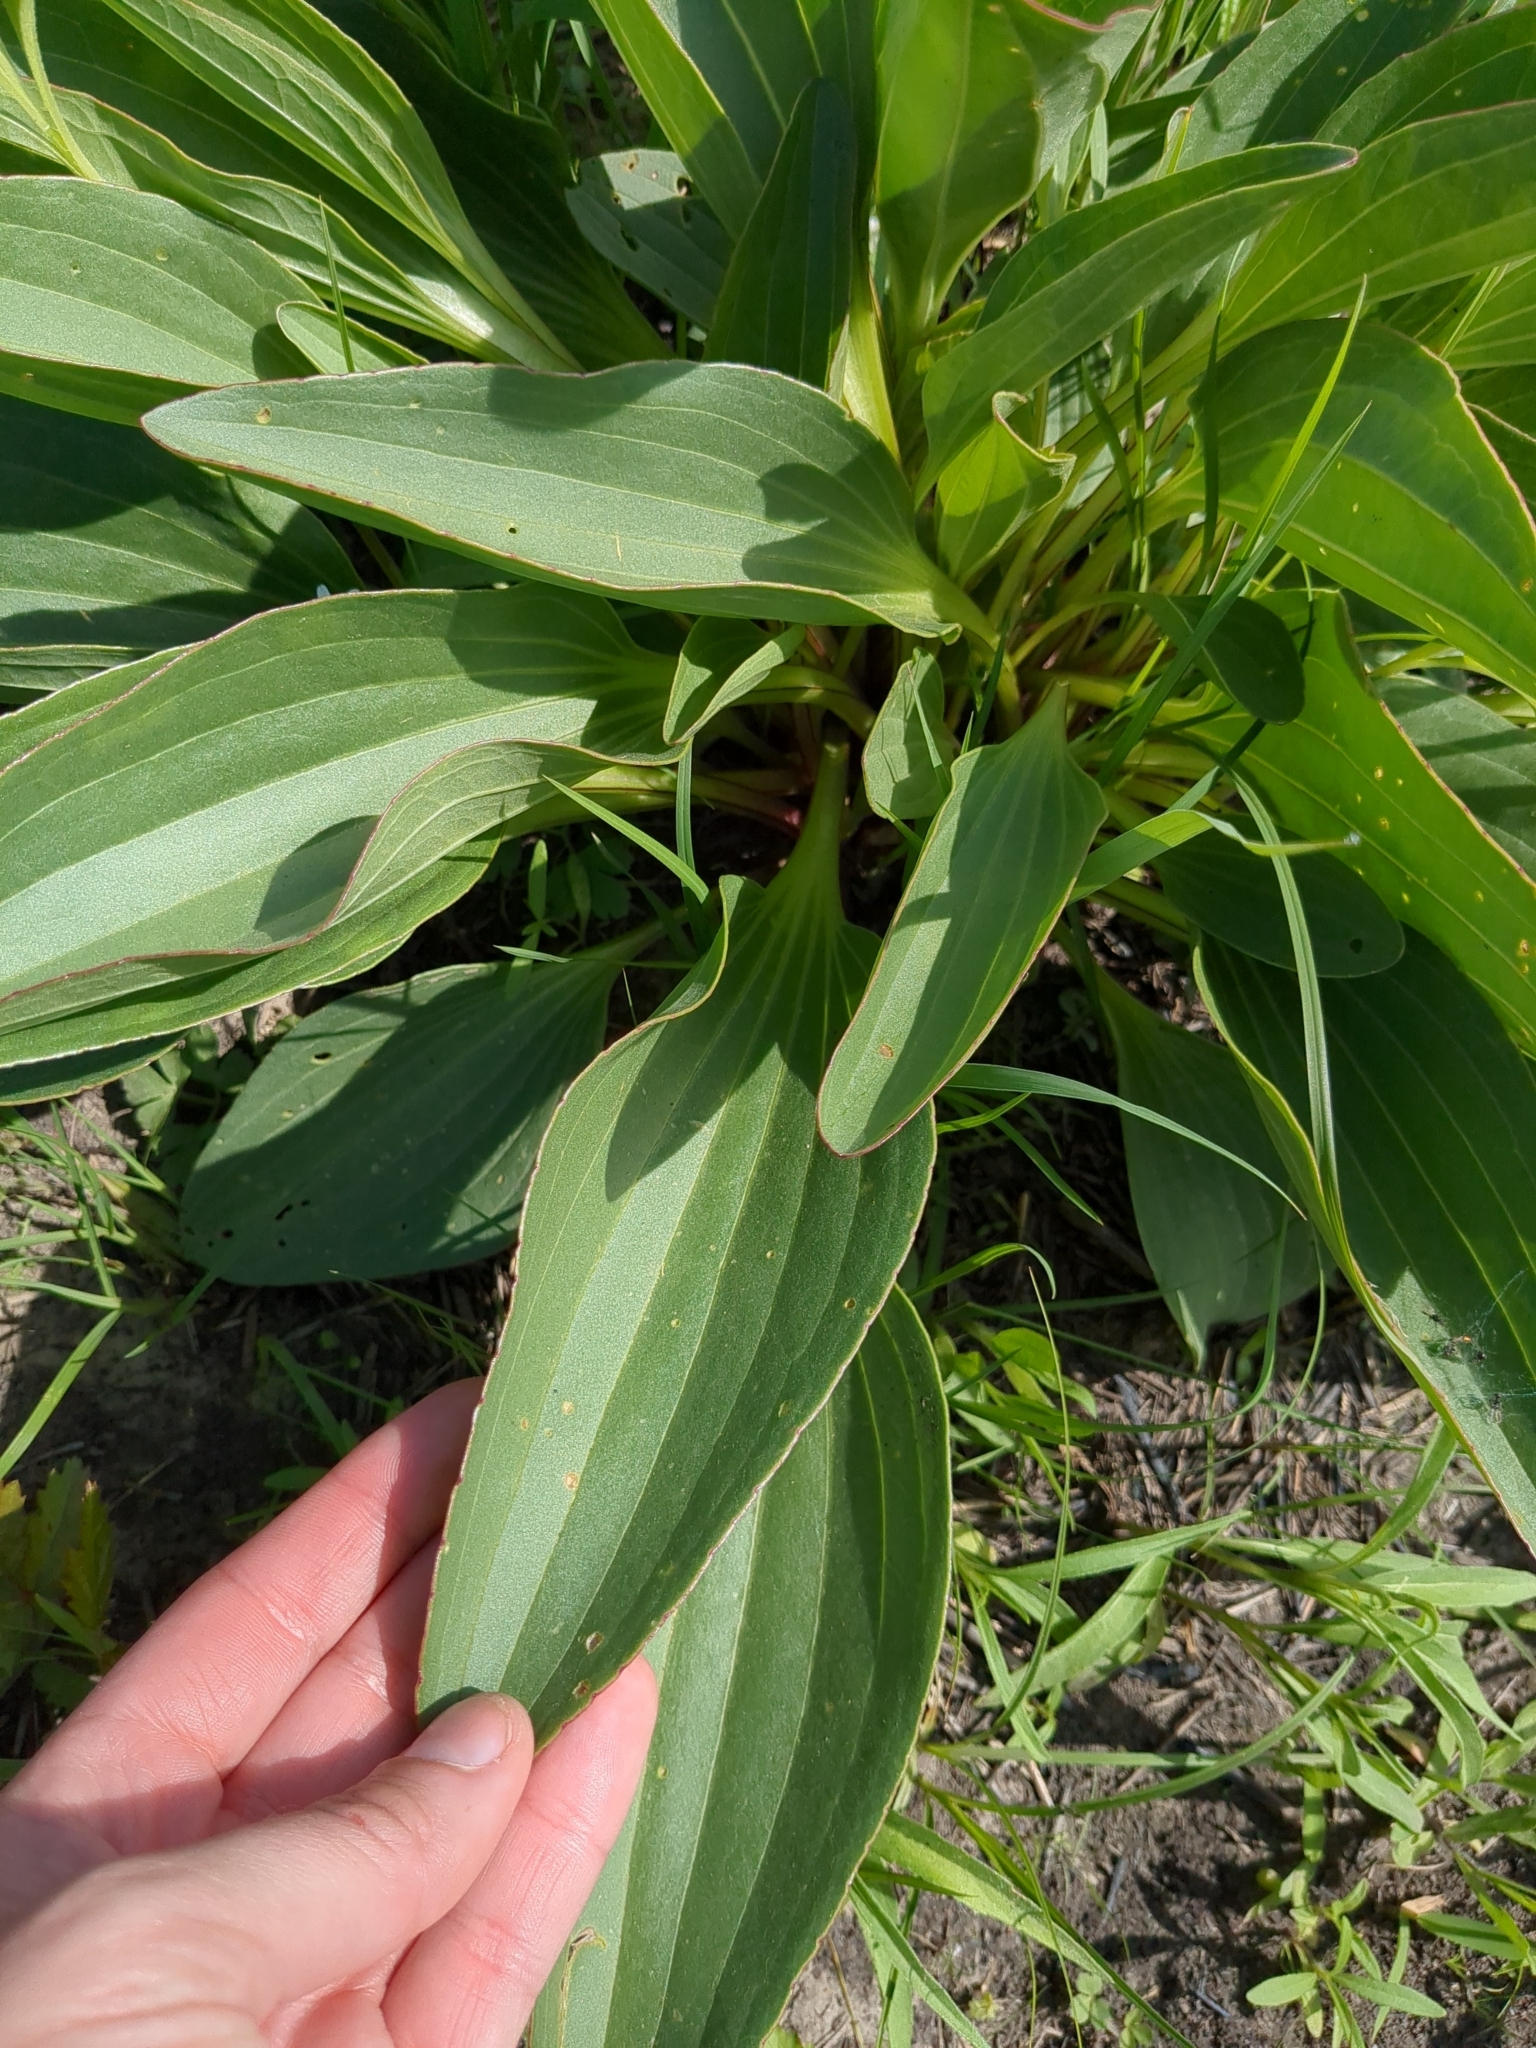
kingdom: Plantae
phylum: Tracheophyta
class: Magnoliopsida
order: Asterales
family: Asteraceae
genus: Arnoglossum
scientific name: Arnoglossum plantagineum
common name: Groove-stemmed indian-plantain
